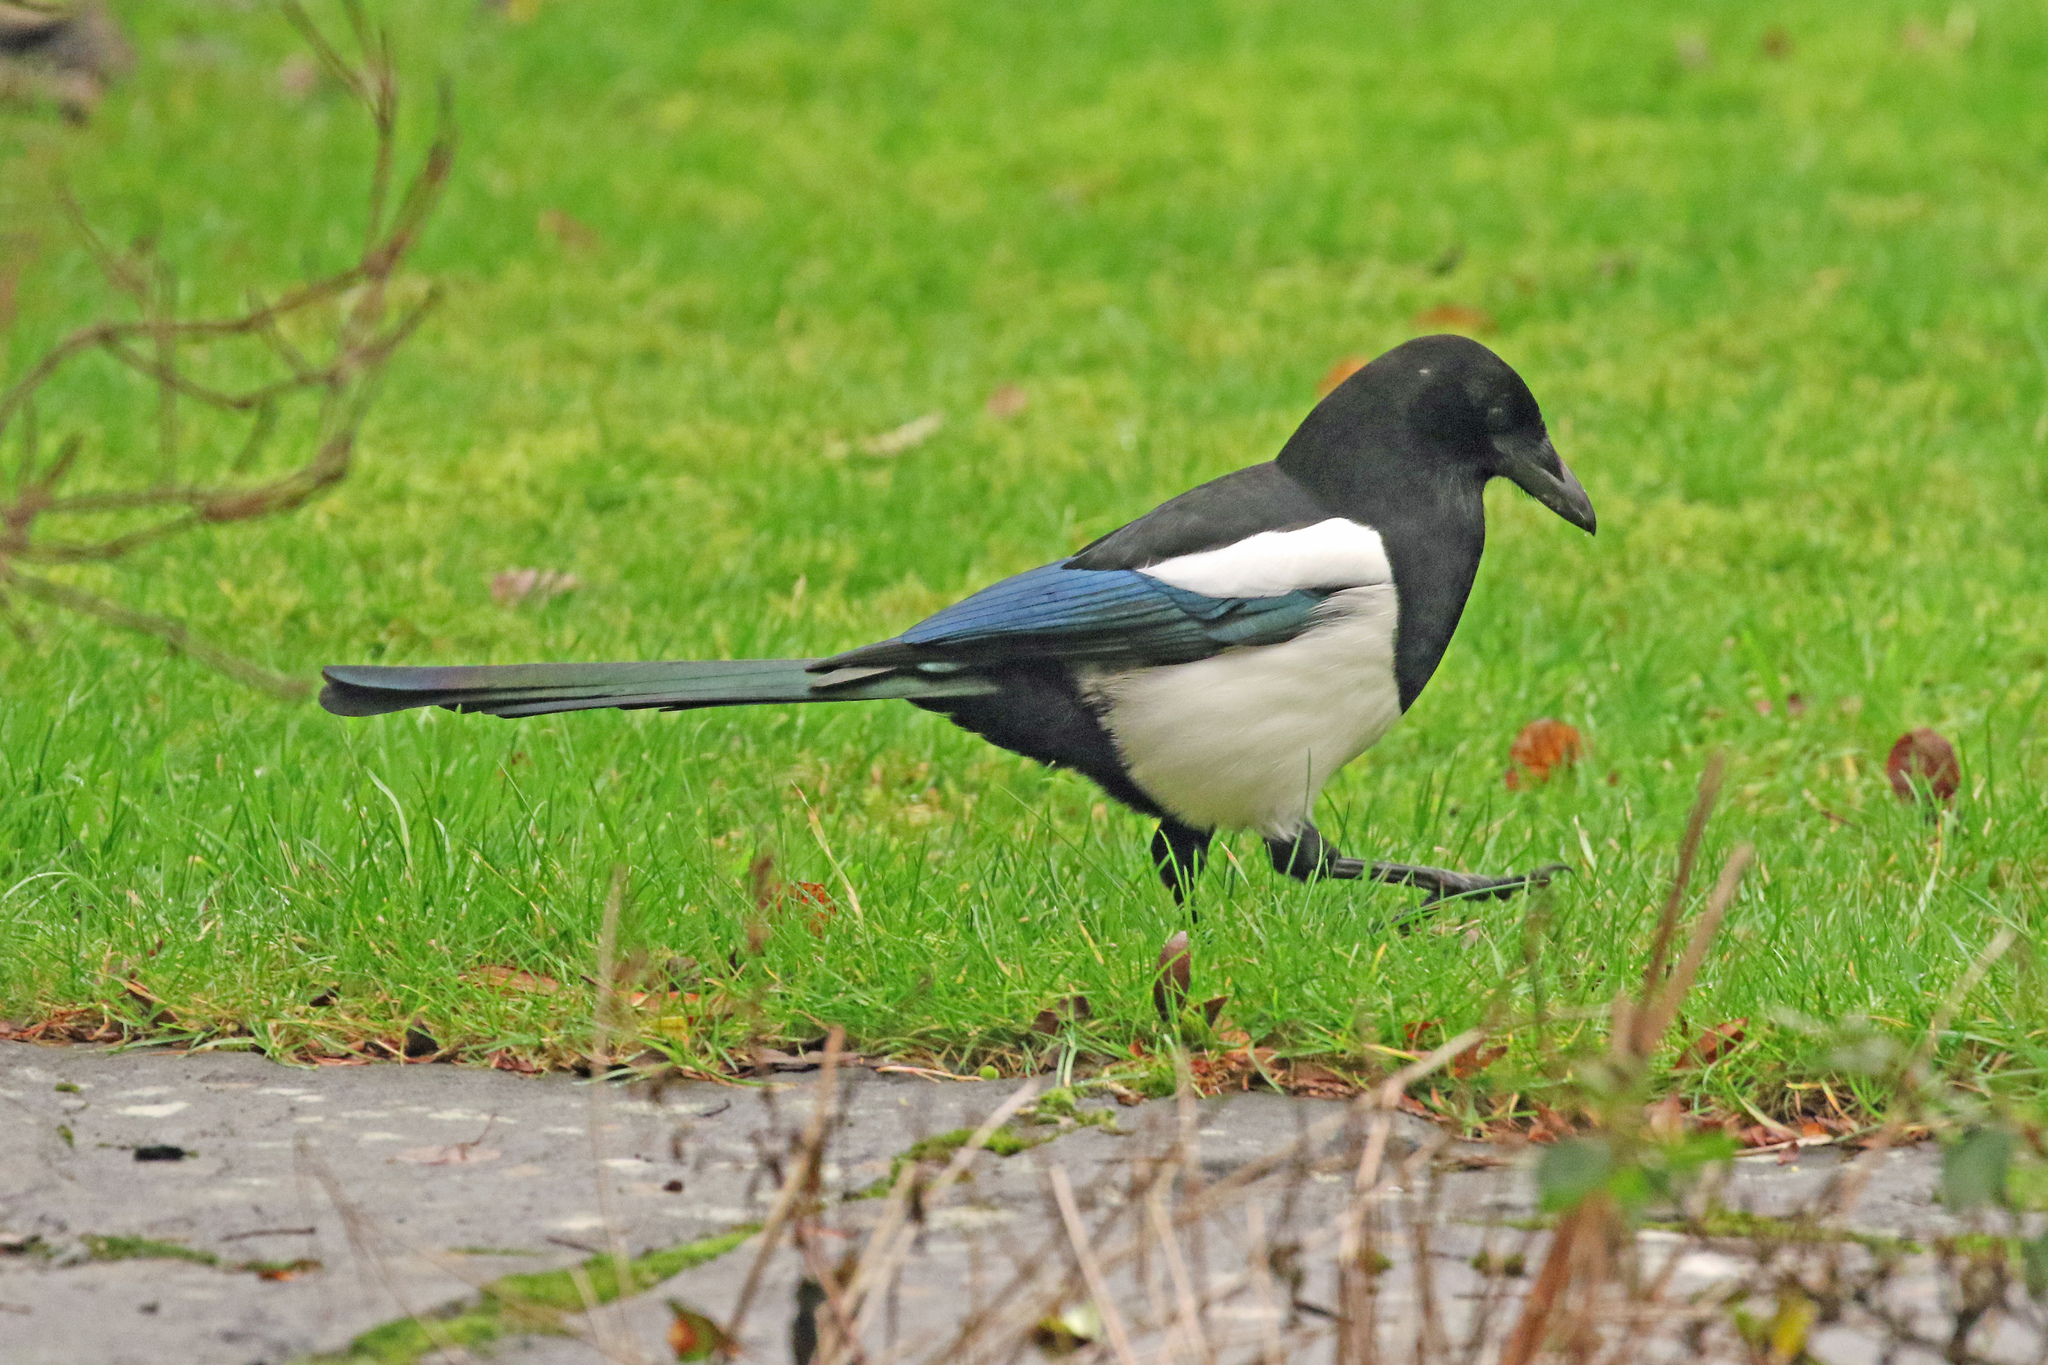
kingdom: Animalia
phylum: Chordata
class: Aves
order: Passeriformes
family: Corvidae
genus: Pica
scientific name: Pica pica
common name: Eurasian magpie
